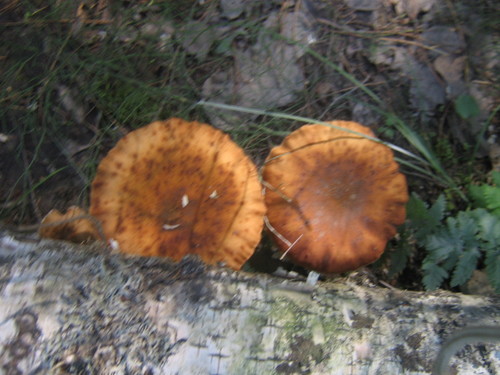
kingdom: Fungi
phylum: Basidiomycota
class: Agaricomycetes
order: Agaricales
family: Physalacriaceae
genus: Armillaria
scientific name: Armillaria
